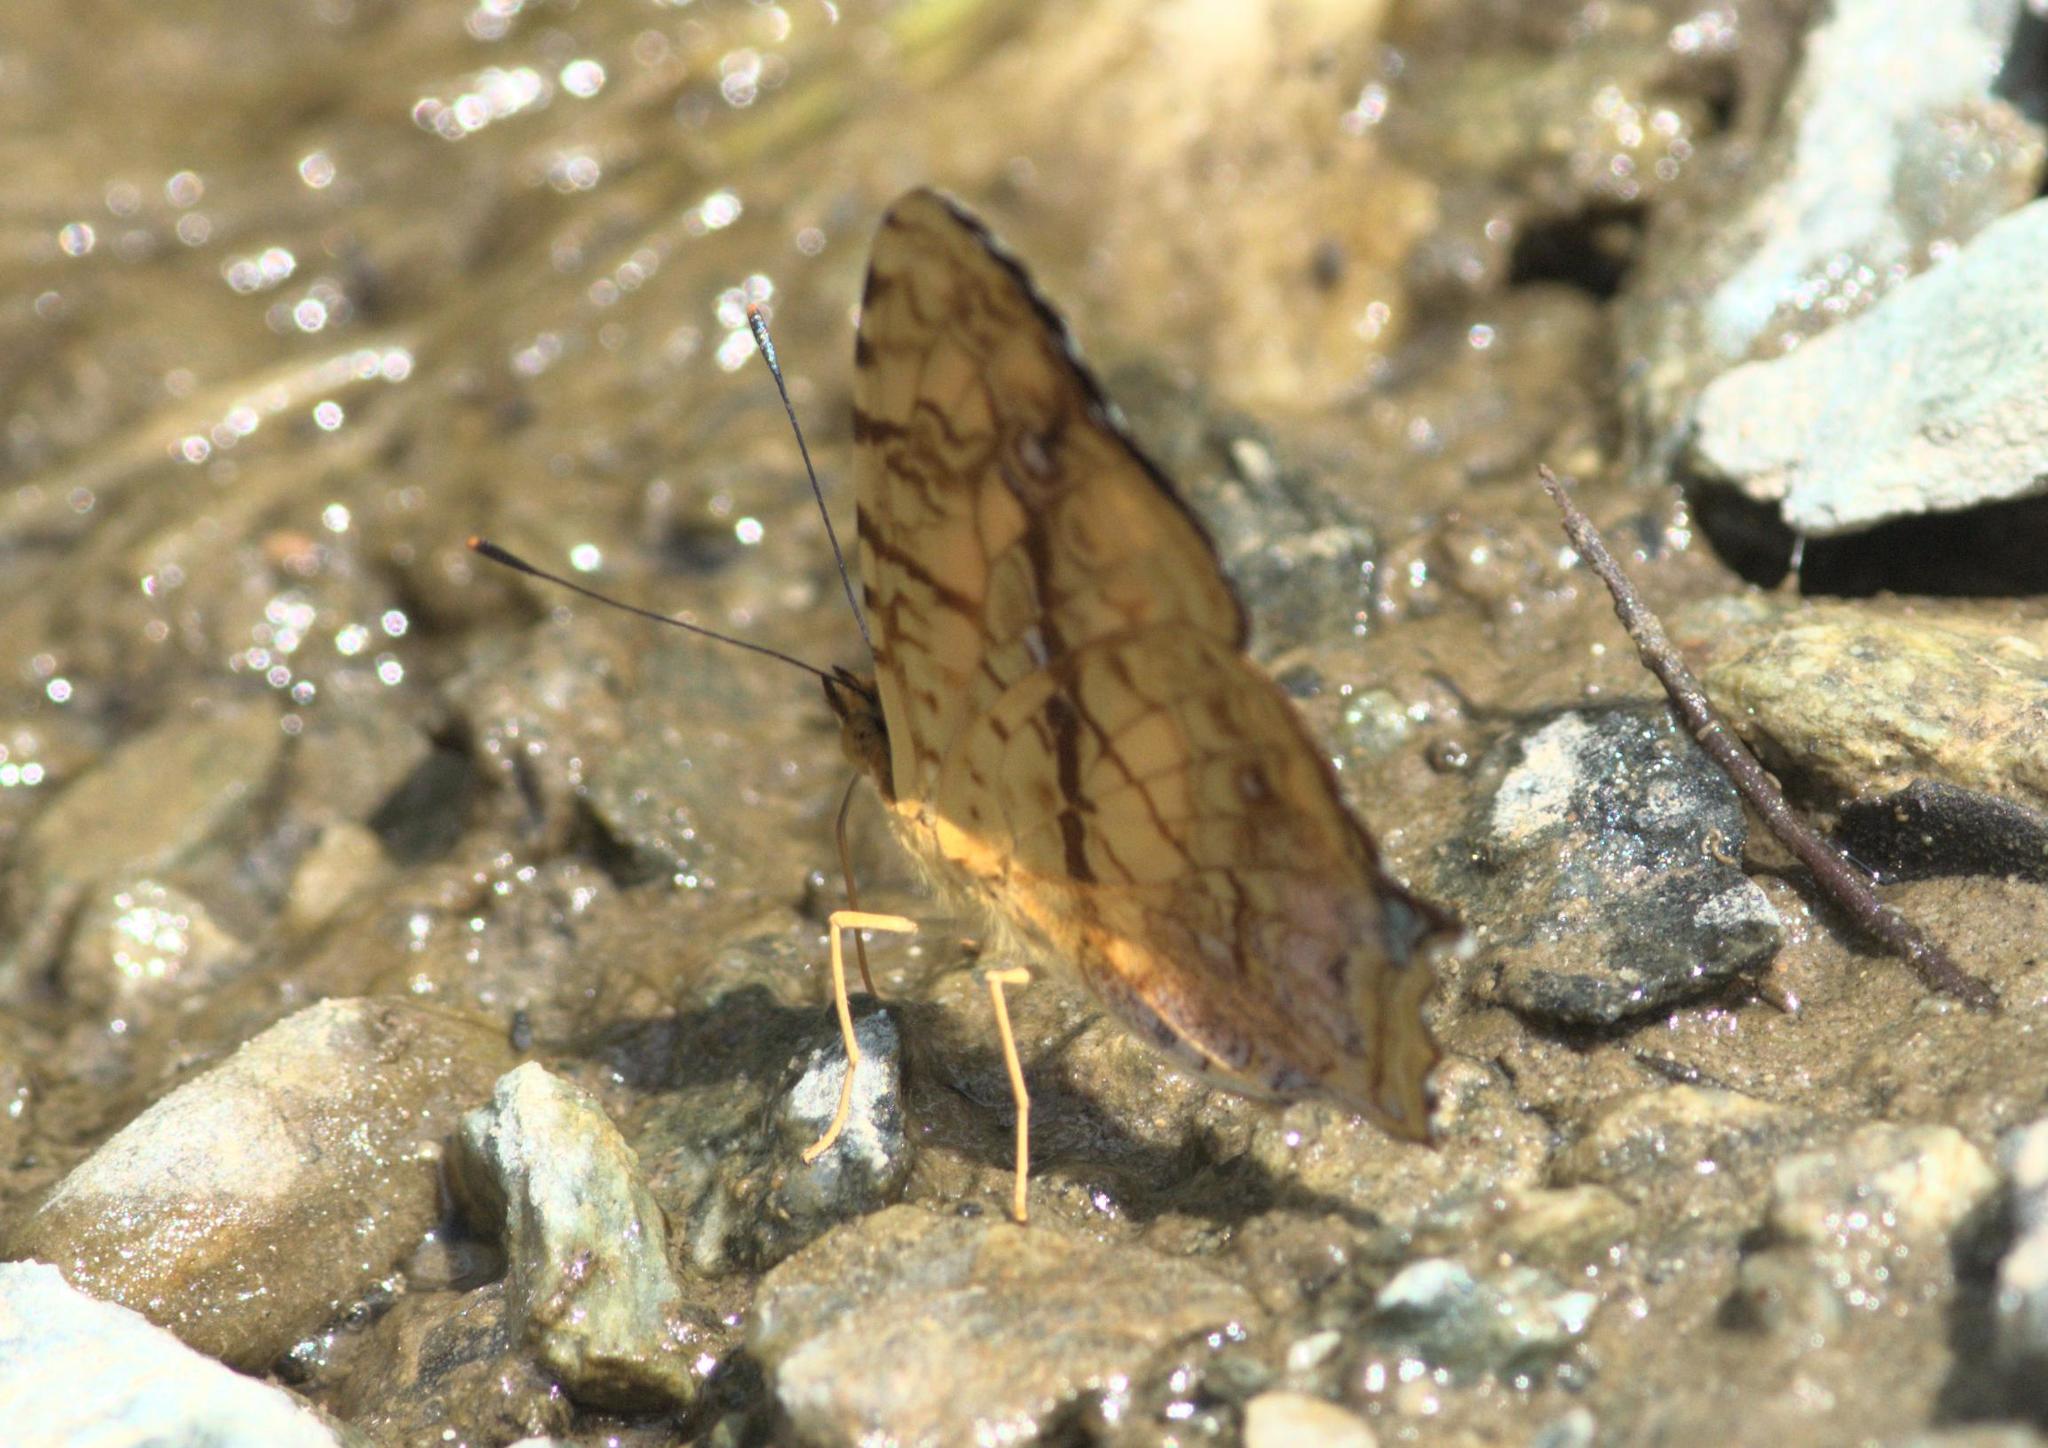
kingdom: Animalia
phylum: Arthropoda
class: Insecta
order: Lepidoptera
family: Nymphalidae
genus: Symbrenthia
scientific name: Symbrenthia hypselis
